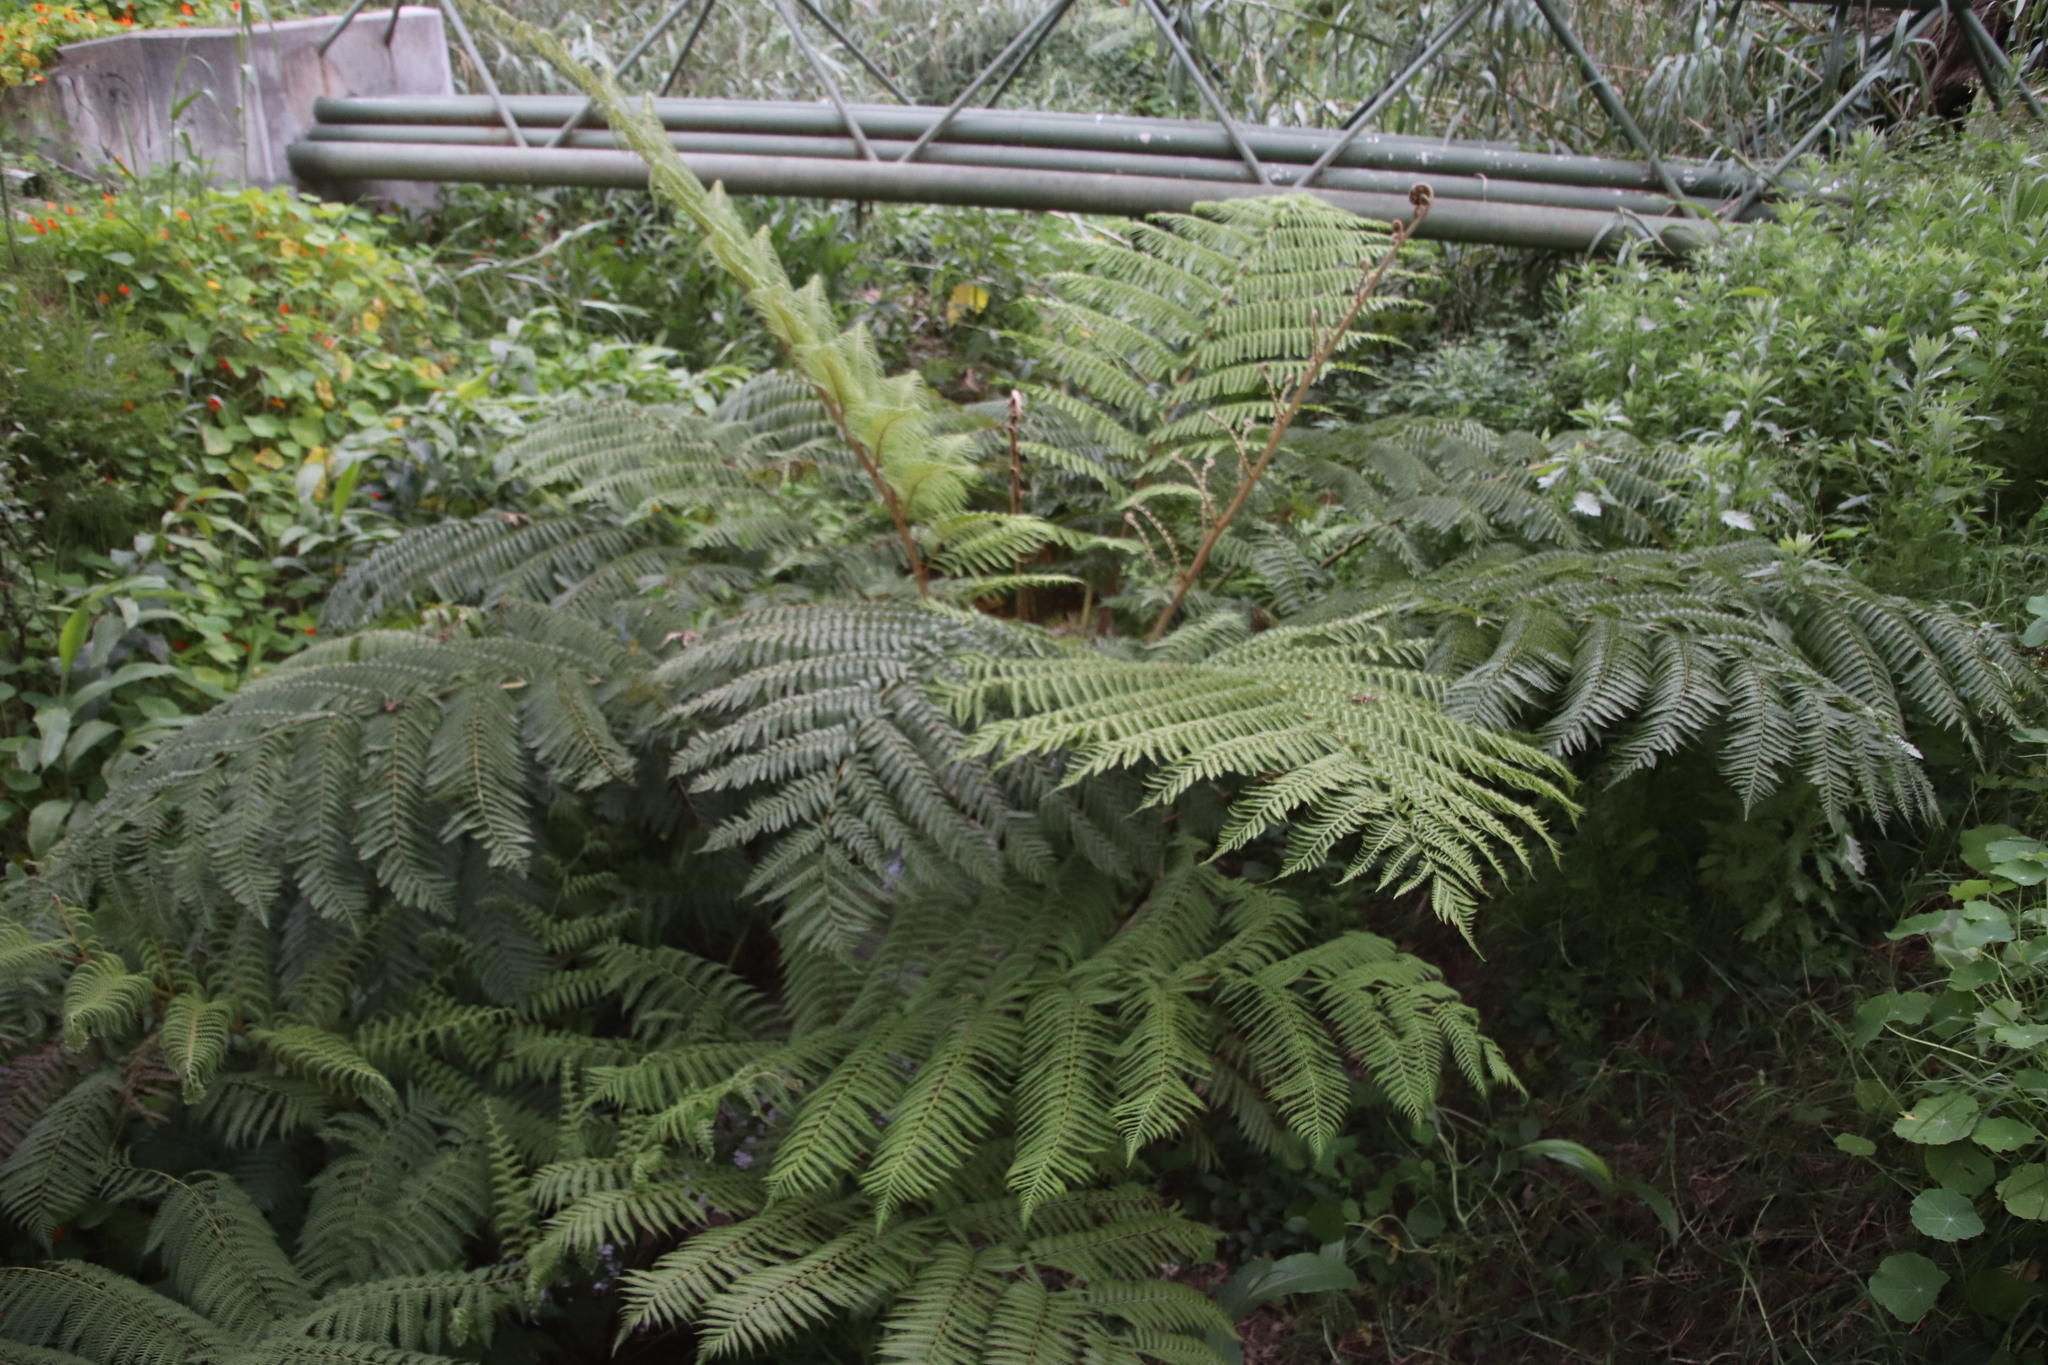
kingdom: Plantae
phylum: Tracheophyta
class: Polypodiopsida
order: Cyatheales
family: Cyatheaceae
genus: Sphaeropteris
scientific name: Sphaeropteris cooperi
